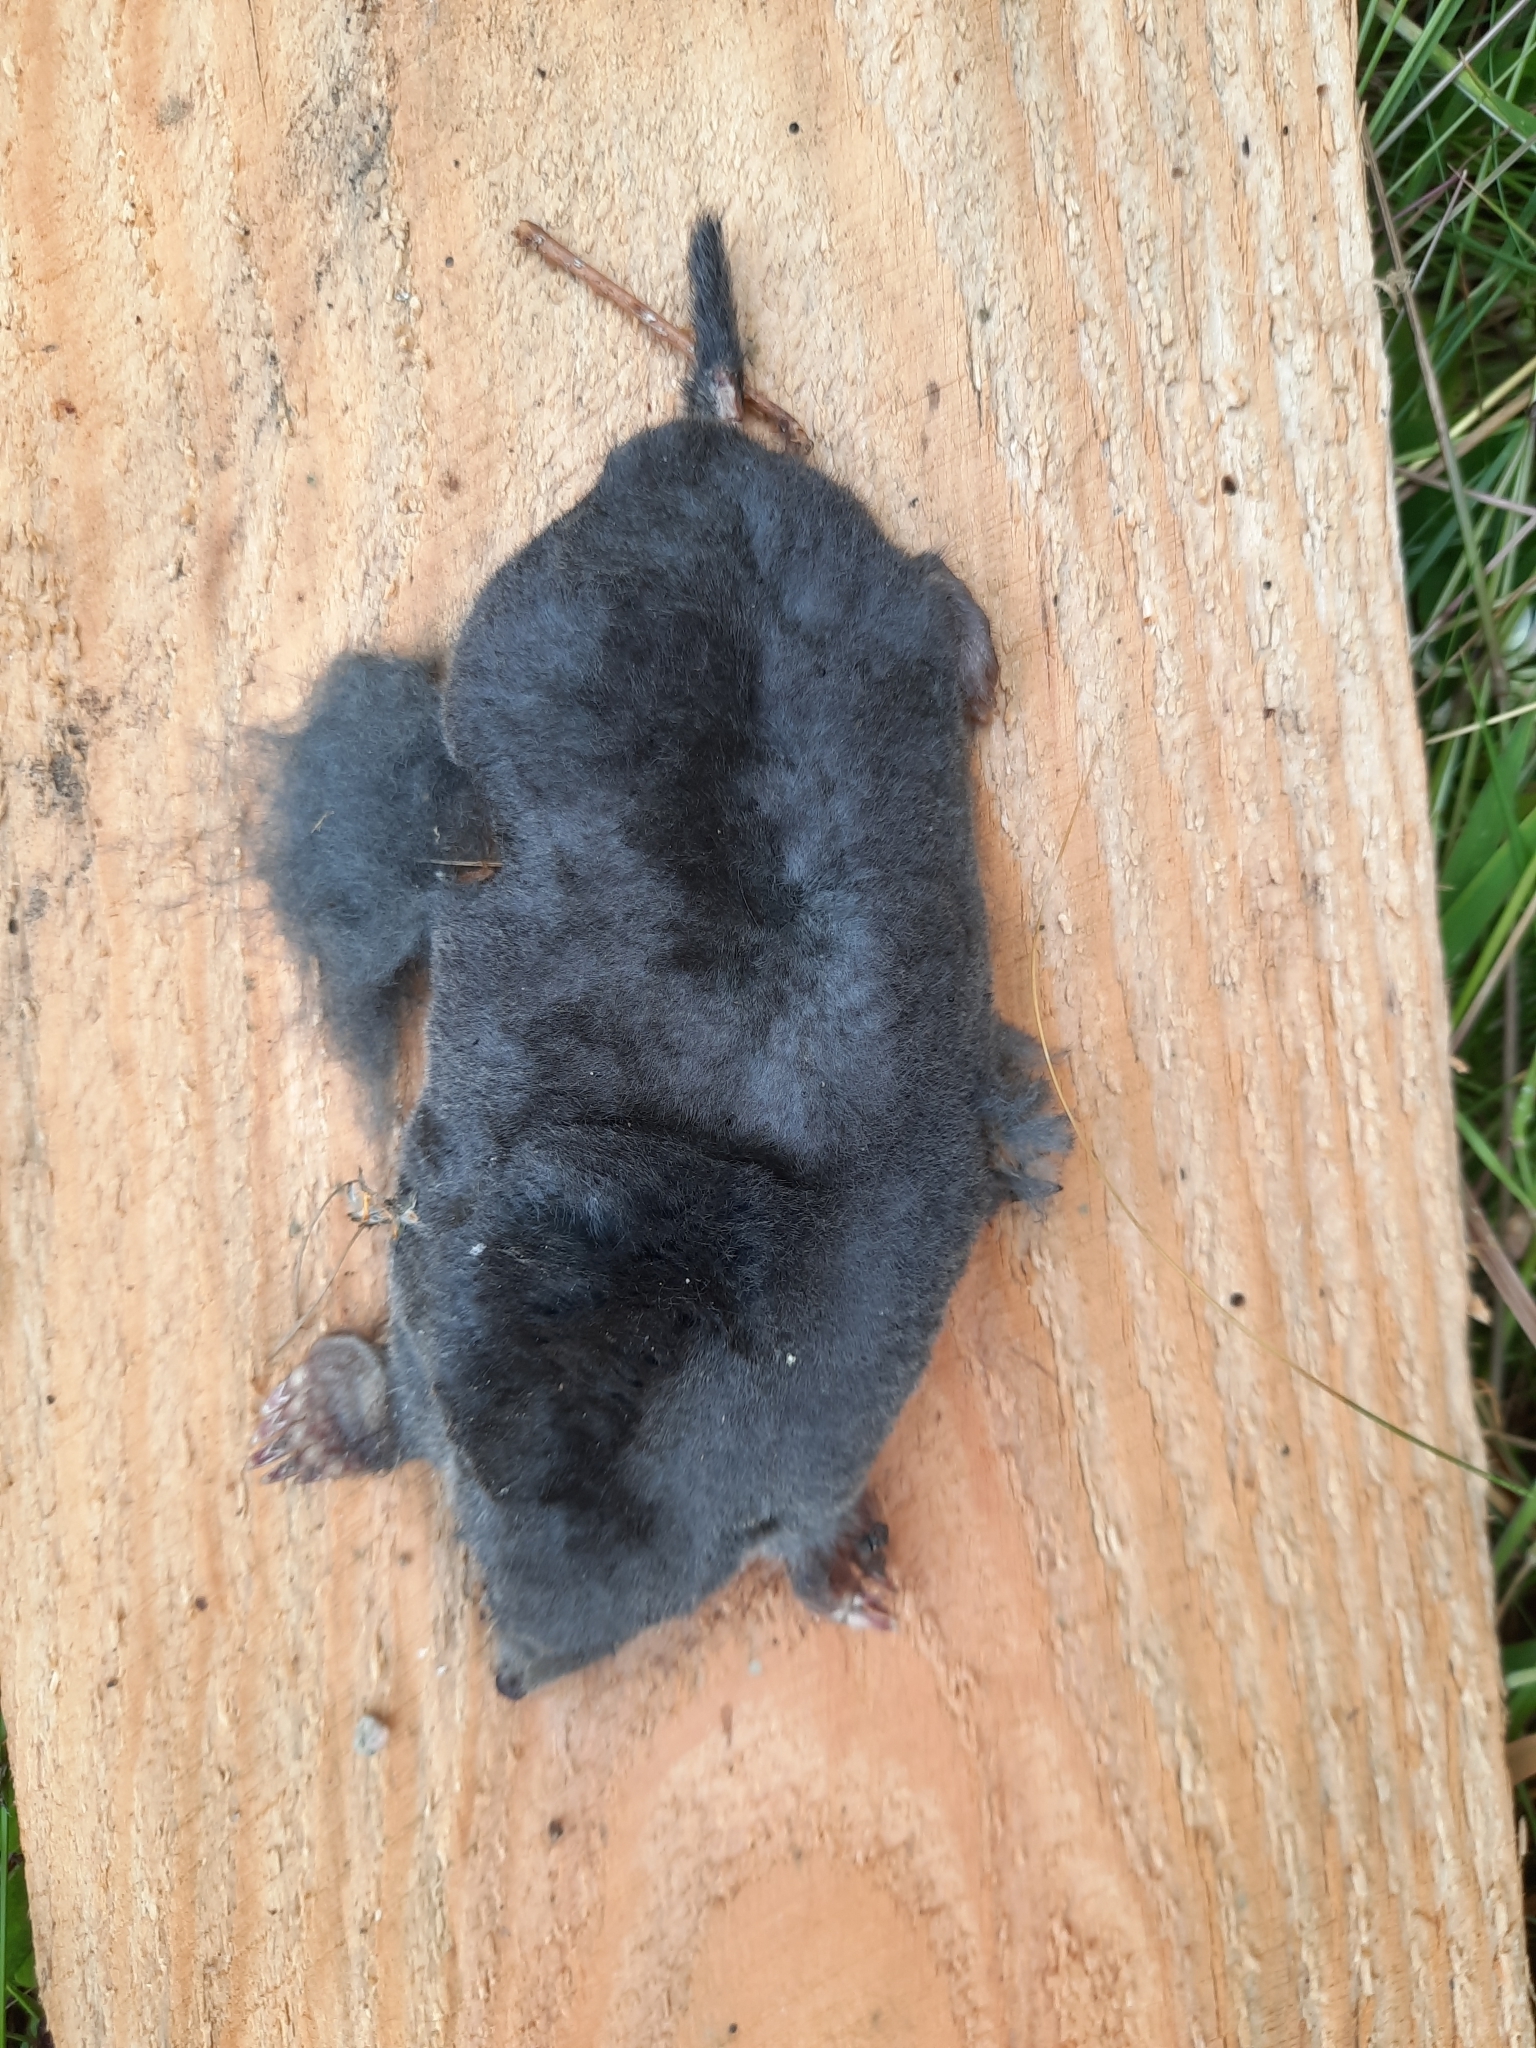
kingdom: Animalia
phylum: Chordata
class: Mammalia
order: Soricomorpha
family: Talpidae
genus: Talpa
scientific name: Talpa europaea
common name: European mole
